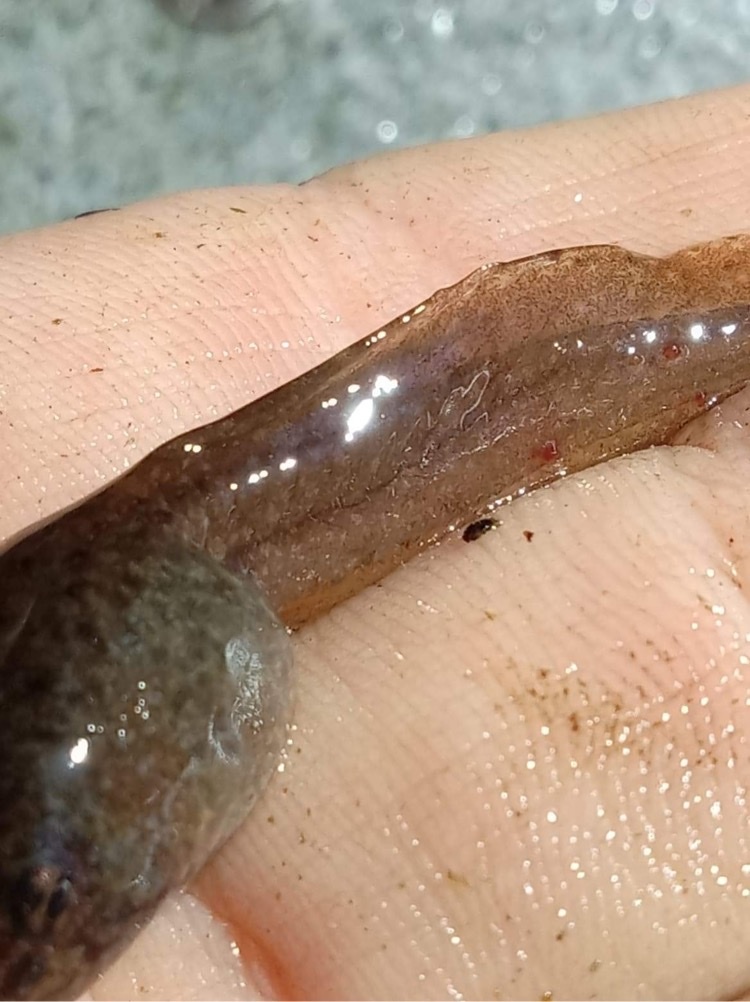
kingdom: Animalia
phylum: Chordata
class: Amphibia
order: Anura
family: Ranidae
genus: Lithobates
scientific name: Lithobates catesbeianus
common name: American bullfrog
